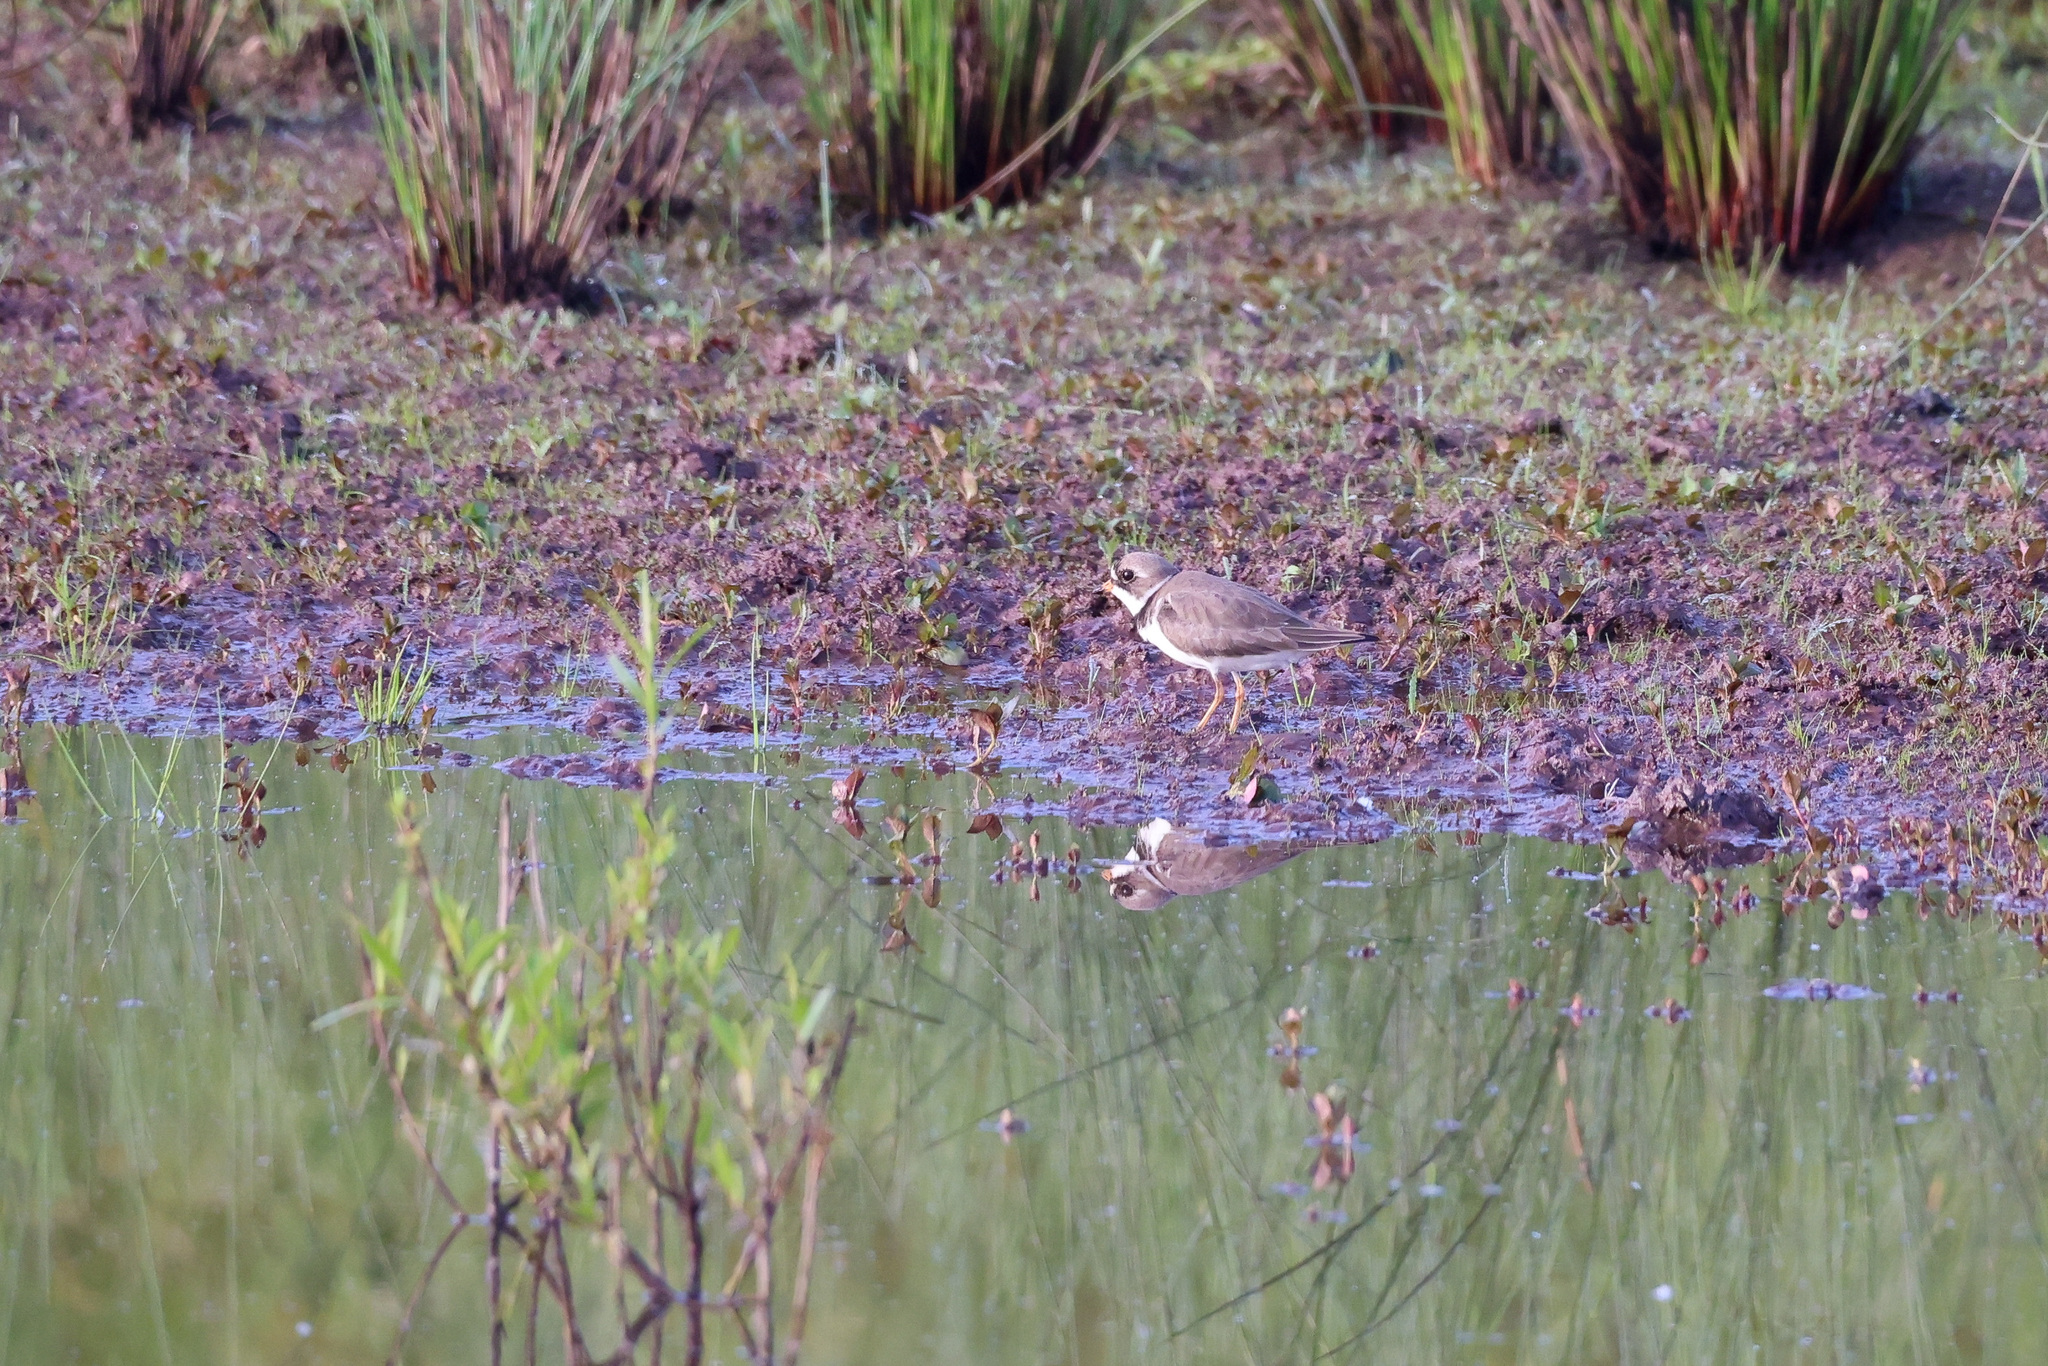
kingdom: Animalia
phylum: Chordata
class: Aves
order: Charadriiformes
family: Charadriidae
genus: Charadrius
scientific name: Charadrius semipalmatus
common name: Semipalmated plover
